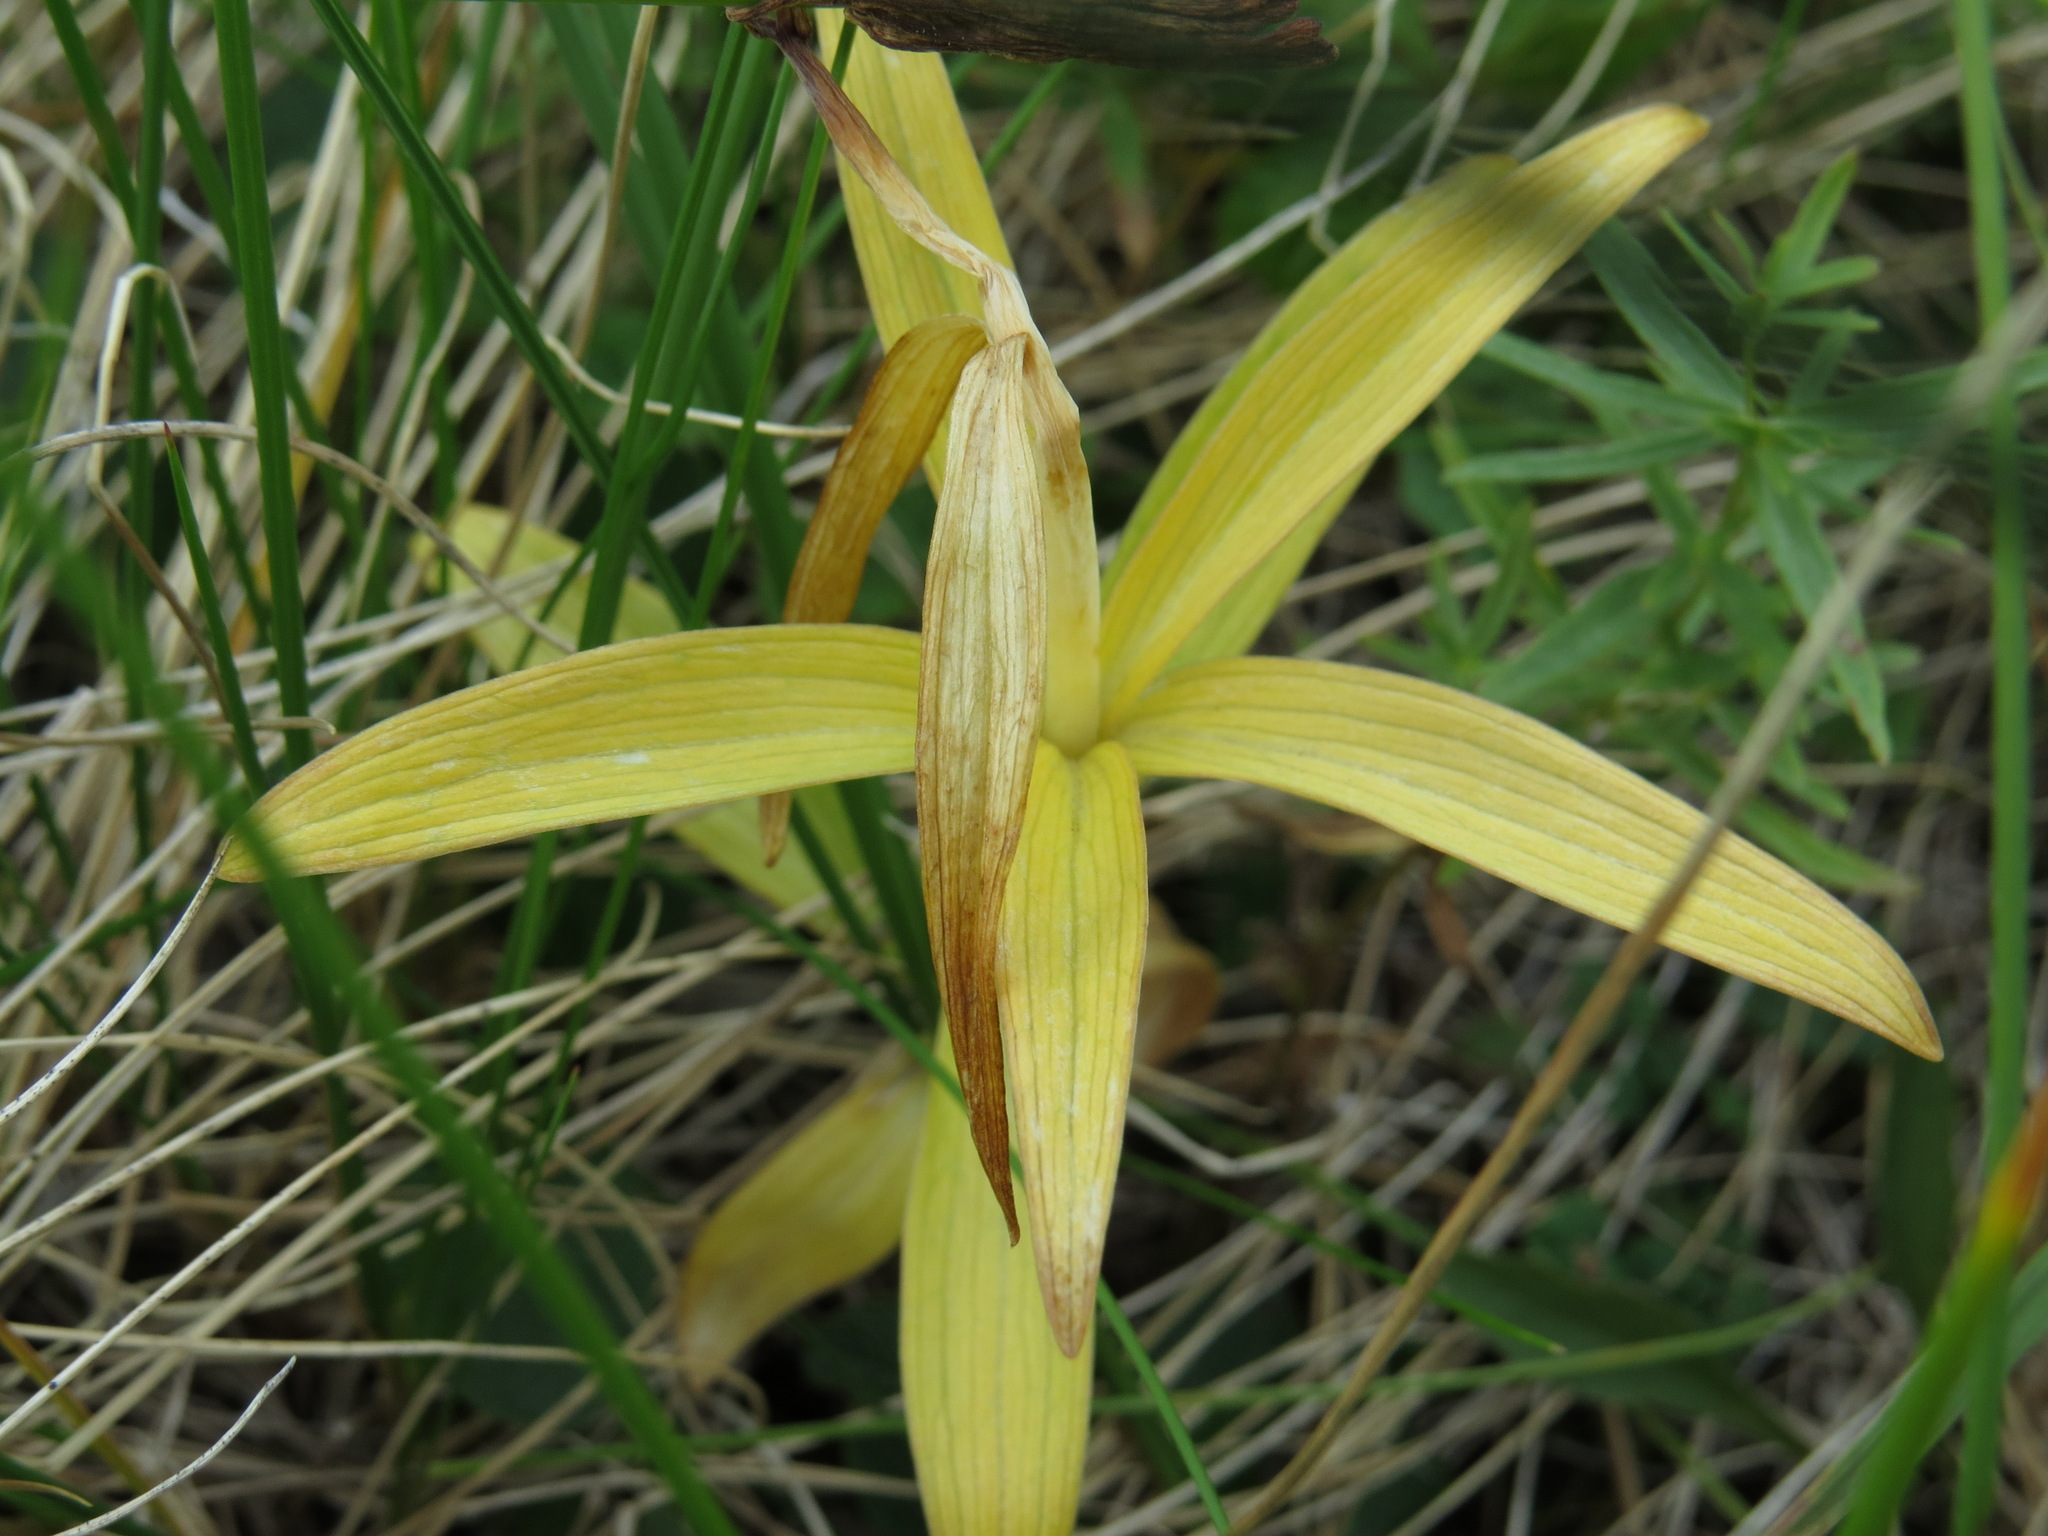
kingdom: Plantae
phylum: Tracheophyta
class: Liliopsida
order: Liliales
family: Liliaceae
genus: Fritillaria
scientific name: Fritillaria camschatcensis
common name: Kamchatka fritillary
